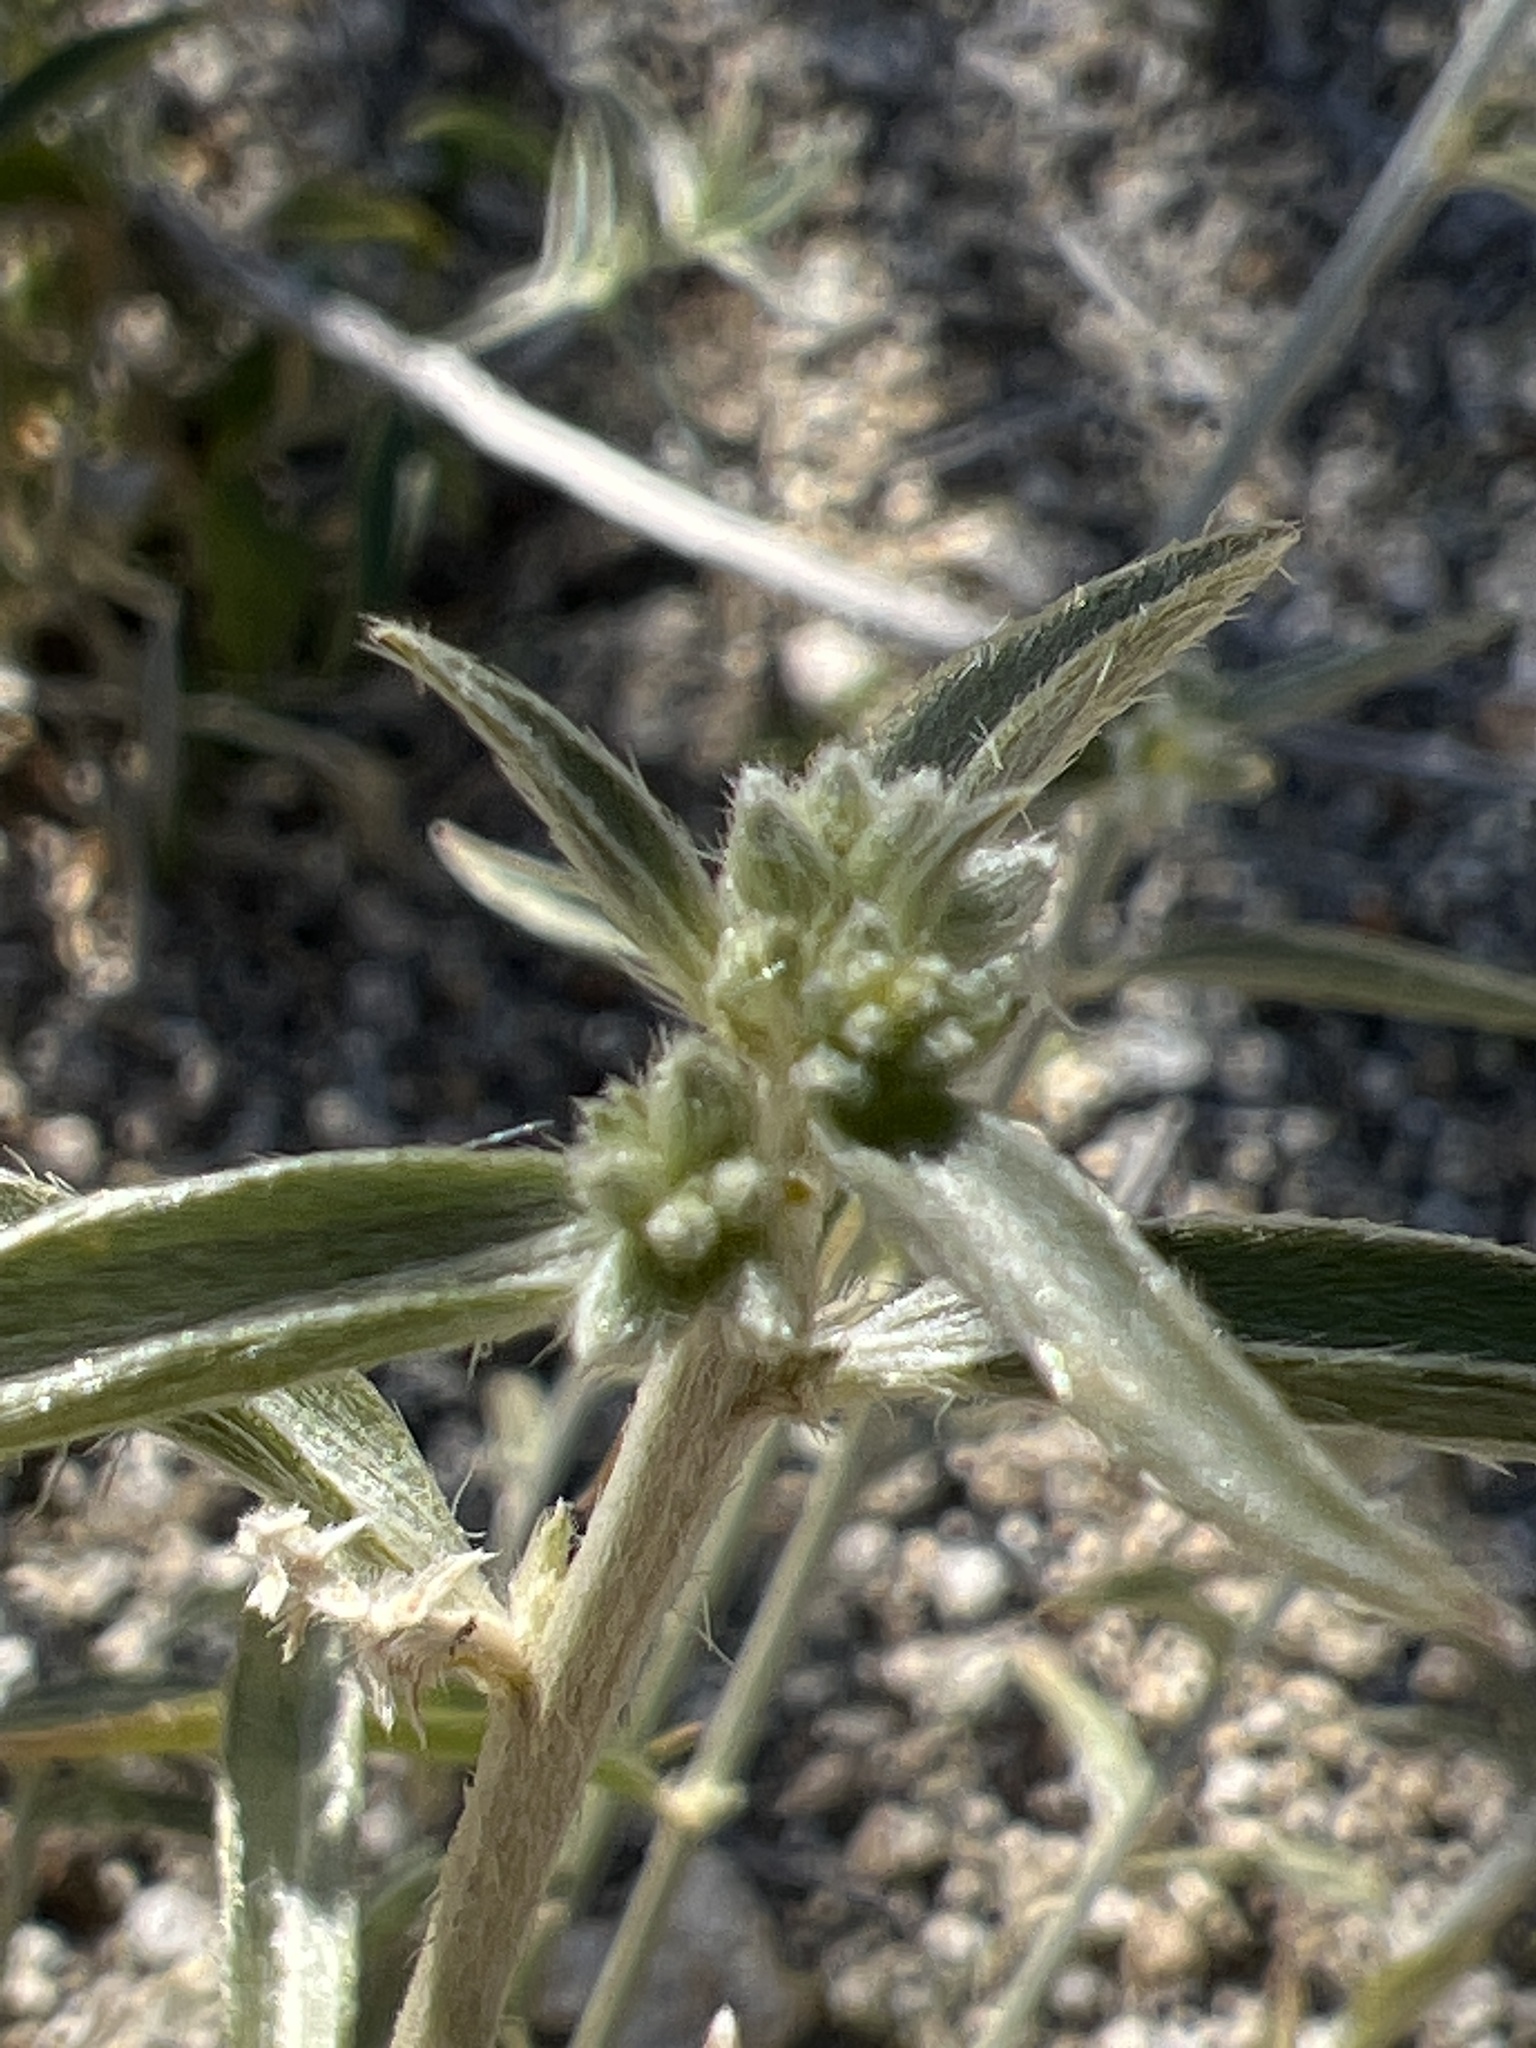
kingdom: Plantae
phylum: Tracheophyta
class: Magnoliopsida
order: Malpighiales
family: Euphorbiaceae
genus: Ditaxis
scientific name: Ditaxis lanceolata
